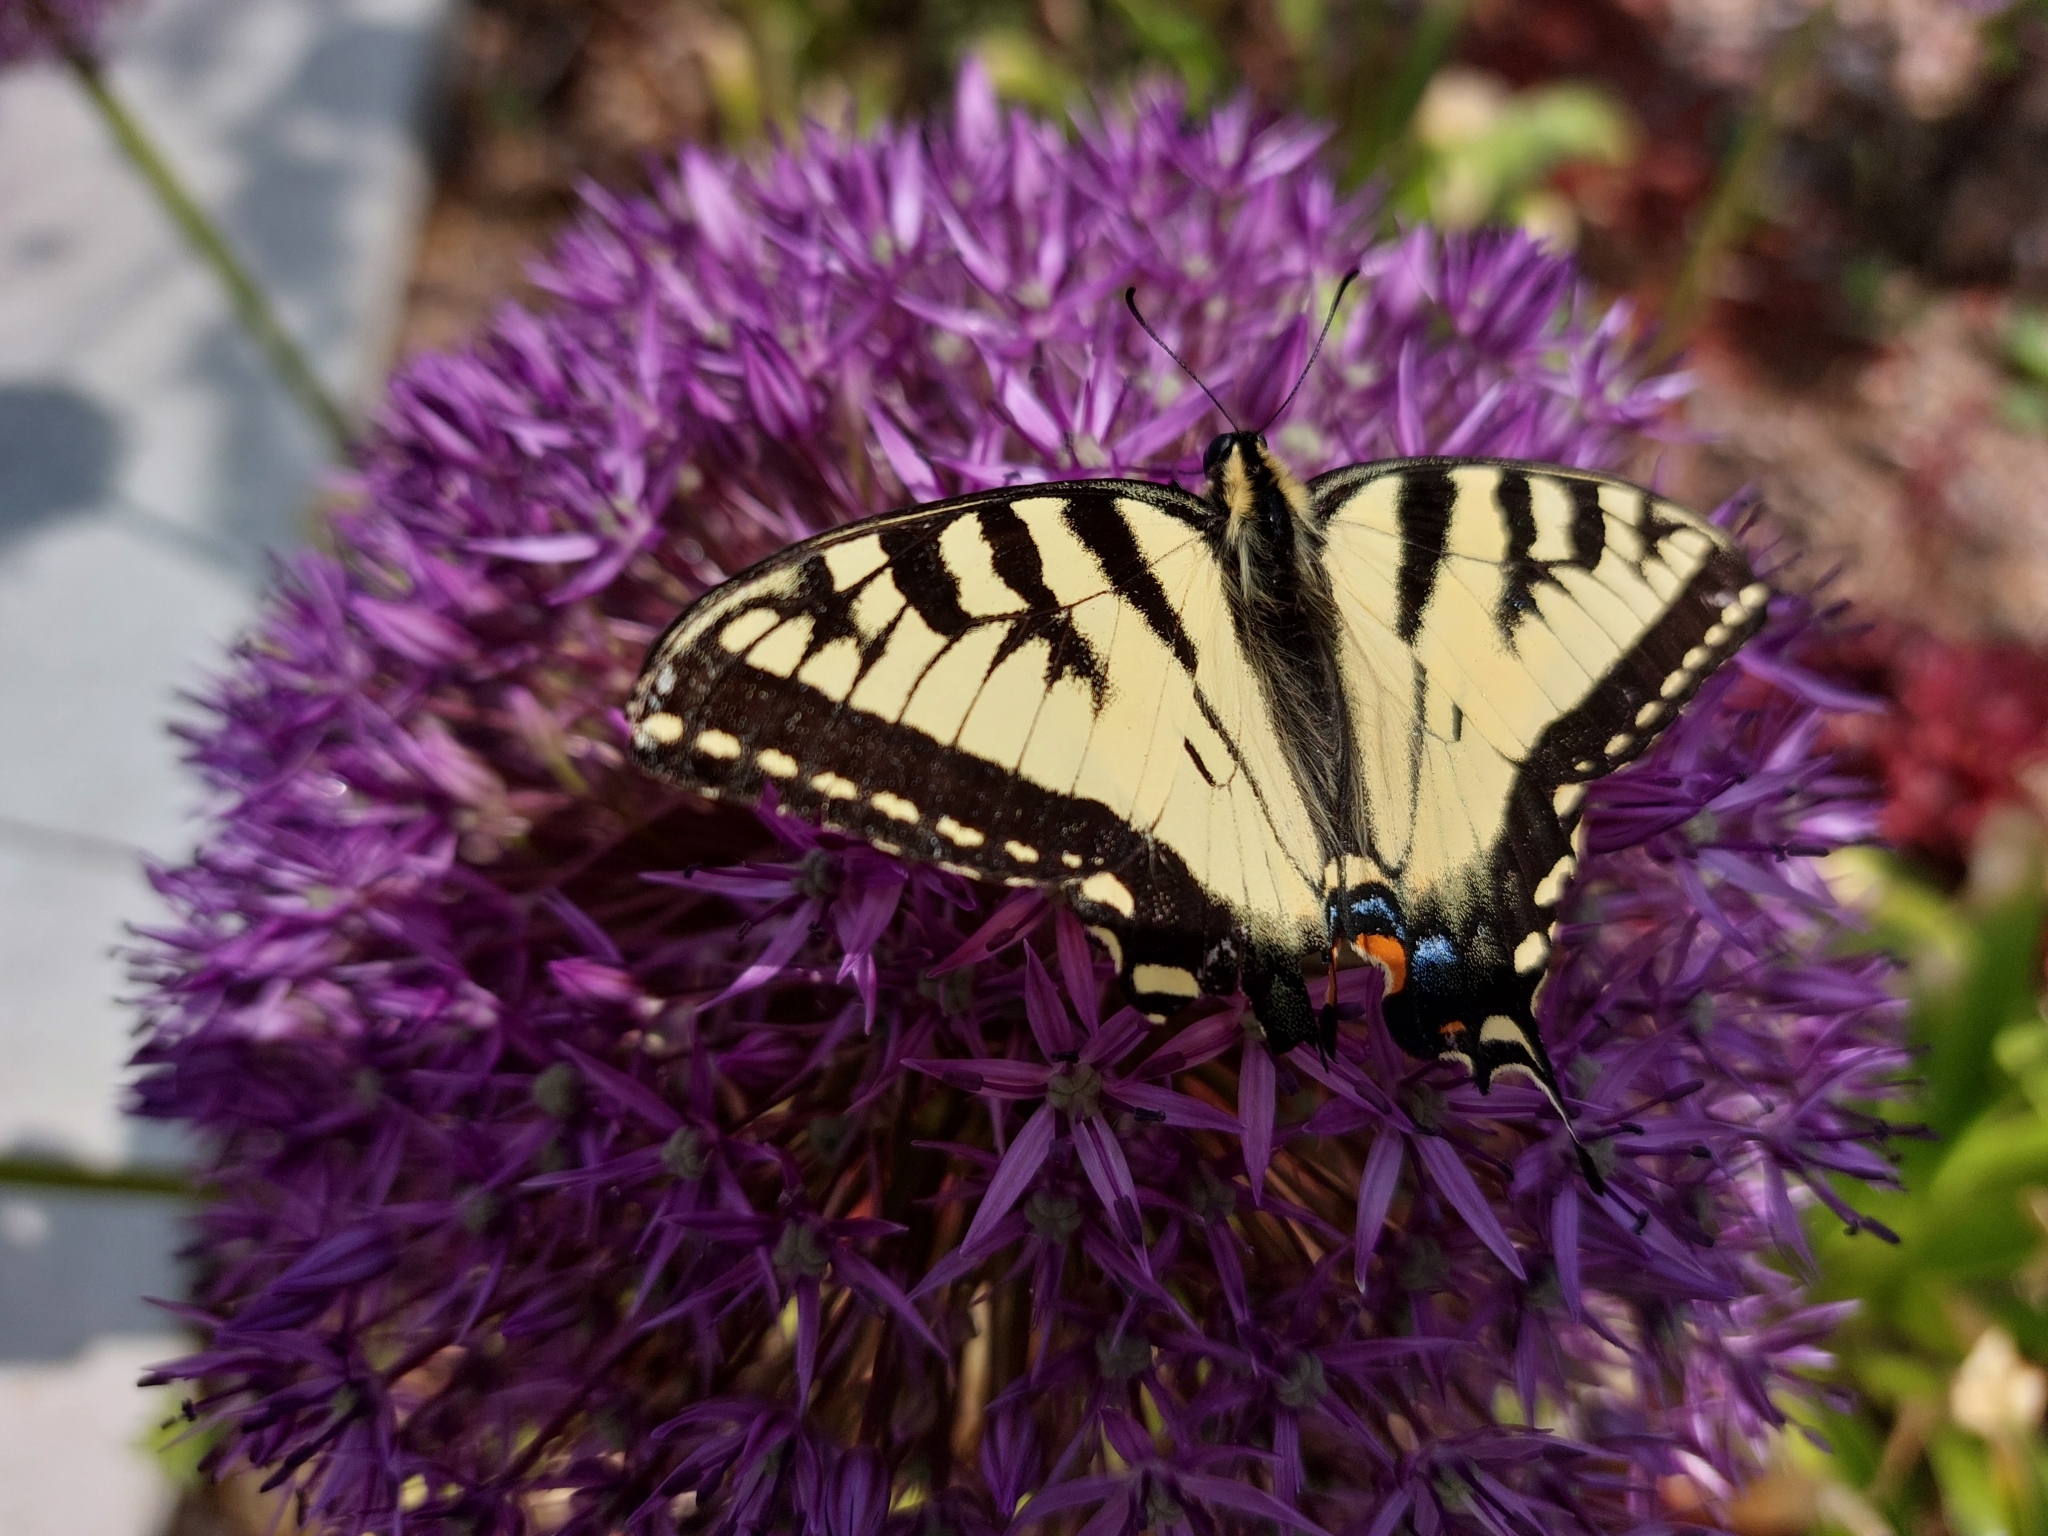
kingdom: Animalia
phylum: Arthropoda
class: Insecta
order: Lepidoptera
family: Papilionidae
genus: Papilio
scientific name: Papilio canadensis
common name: Canadian tiger swallowtail
